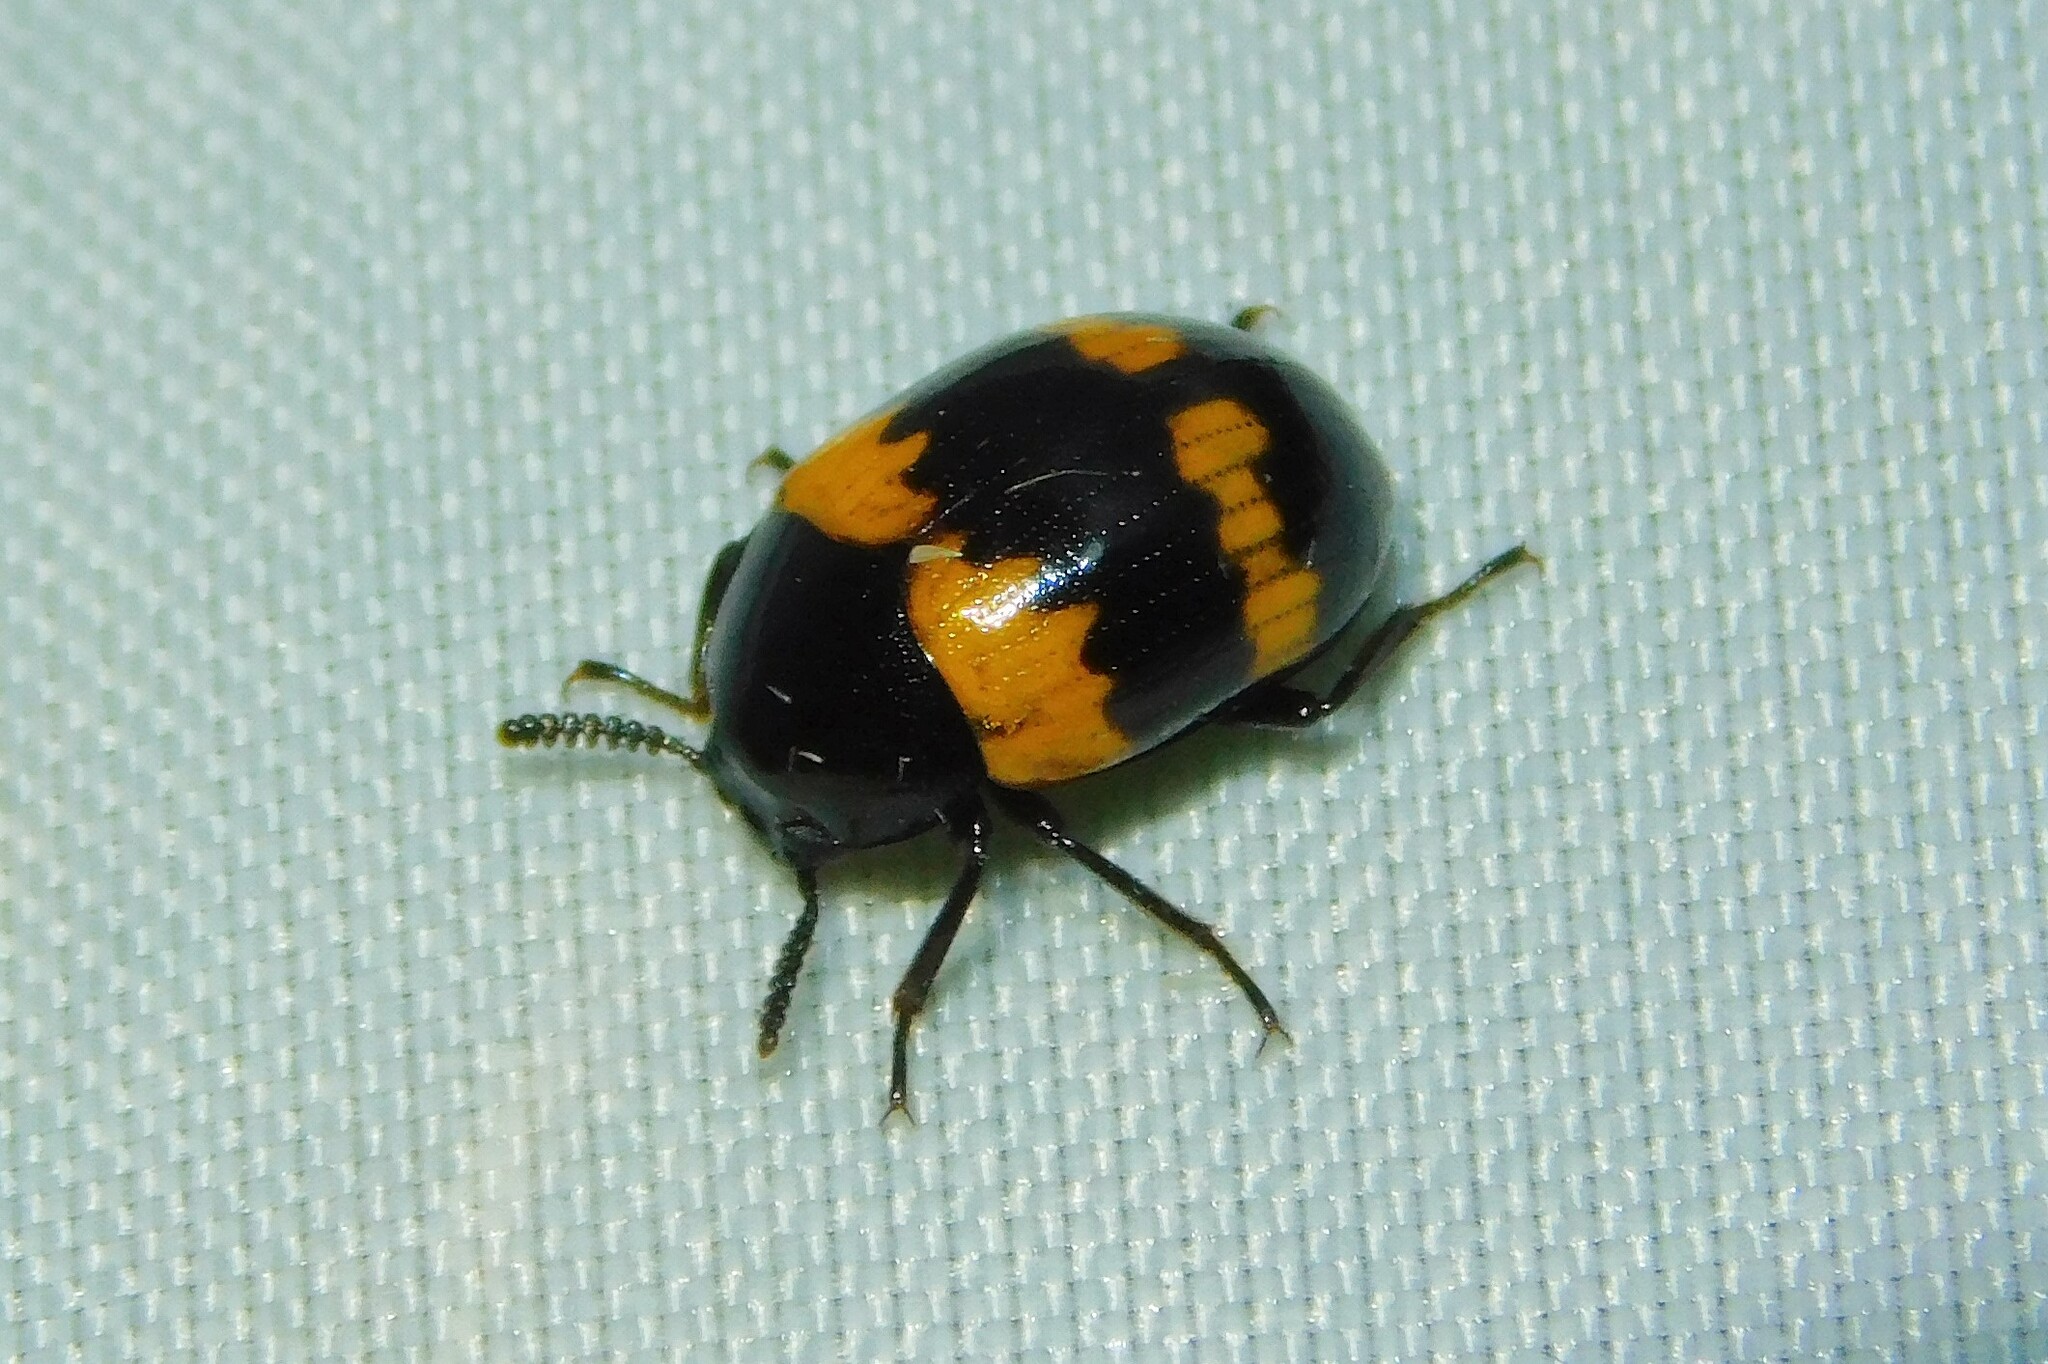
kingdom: Animalia
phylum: Arthropoda
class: Insecta
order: Coleoptera
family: Tenebrionidae
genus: Diaperis
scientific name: Diaperis boleti
